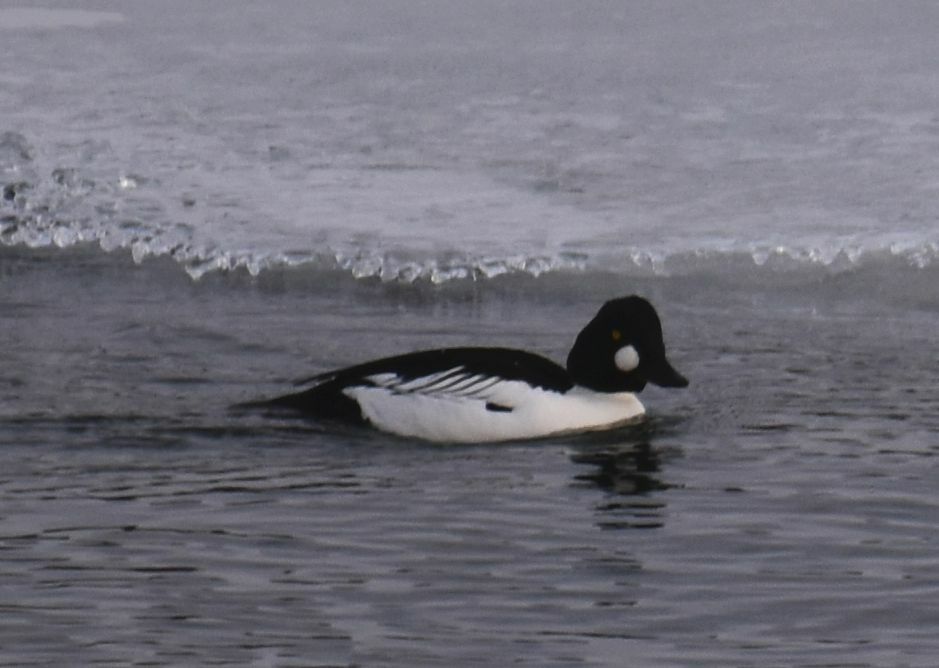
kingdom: Animalia
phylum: Chordata
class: Aves
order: Anseriformes
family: Anatidae
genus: Bucephala
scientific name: Bucephala clangula
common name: Common goldeneye
